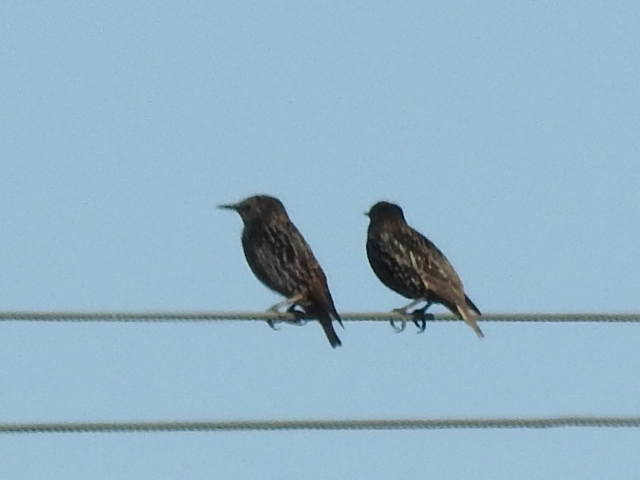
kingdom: Animalia
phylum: Chordata
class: Aves
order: Passeriformes
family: Sturnidae
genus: Sturnus
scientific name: Sturnus vulgaris
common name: Common starling
